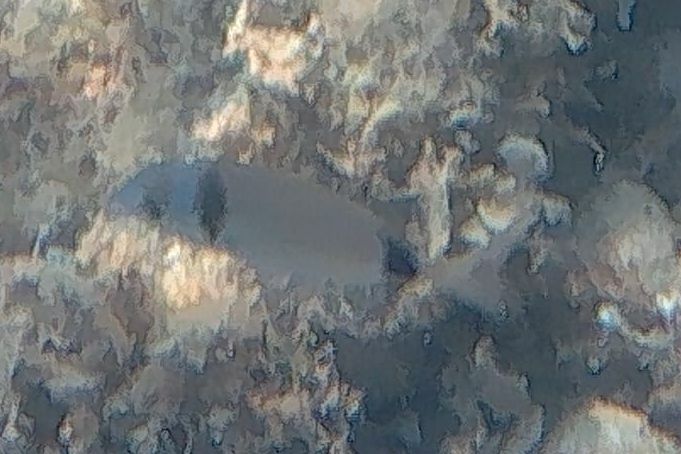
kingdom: Animalia
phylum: Chordata
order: Perciformes
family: Sparidae
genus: Diplodus
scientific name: Diplodus vulgaris
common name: Common two-banded seabream
